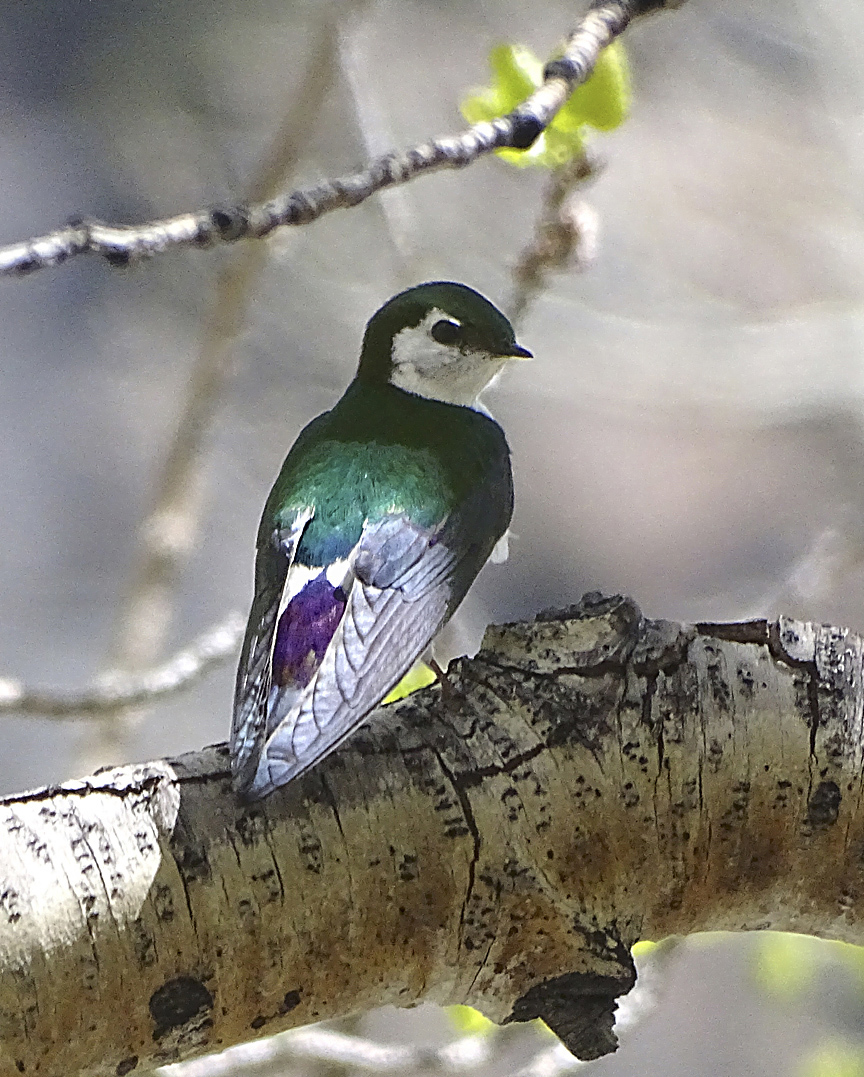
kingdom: Animalia
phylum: Chordata
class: Aves
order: Passeriformes
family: Hirundinidae
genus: Tachycineta
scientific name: Tachycineta thalassina
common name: Violet-green swallow
